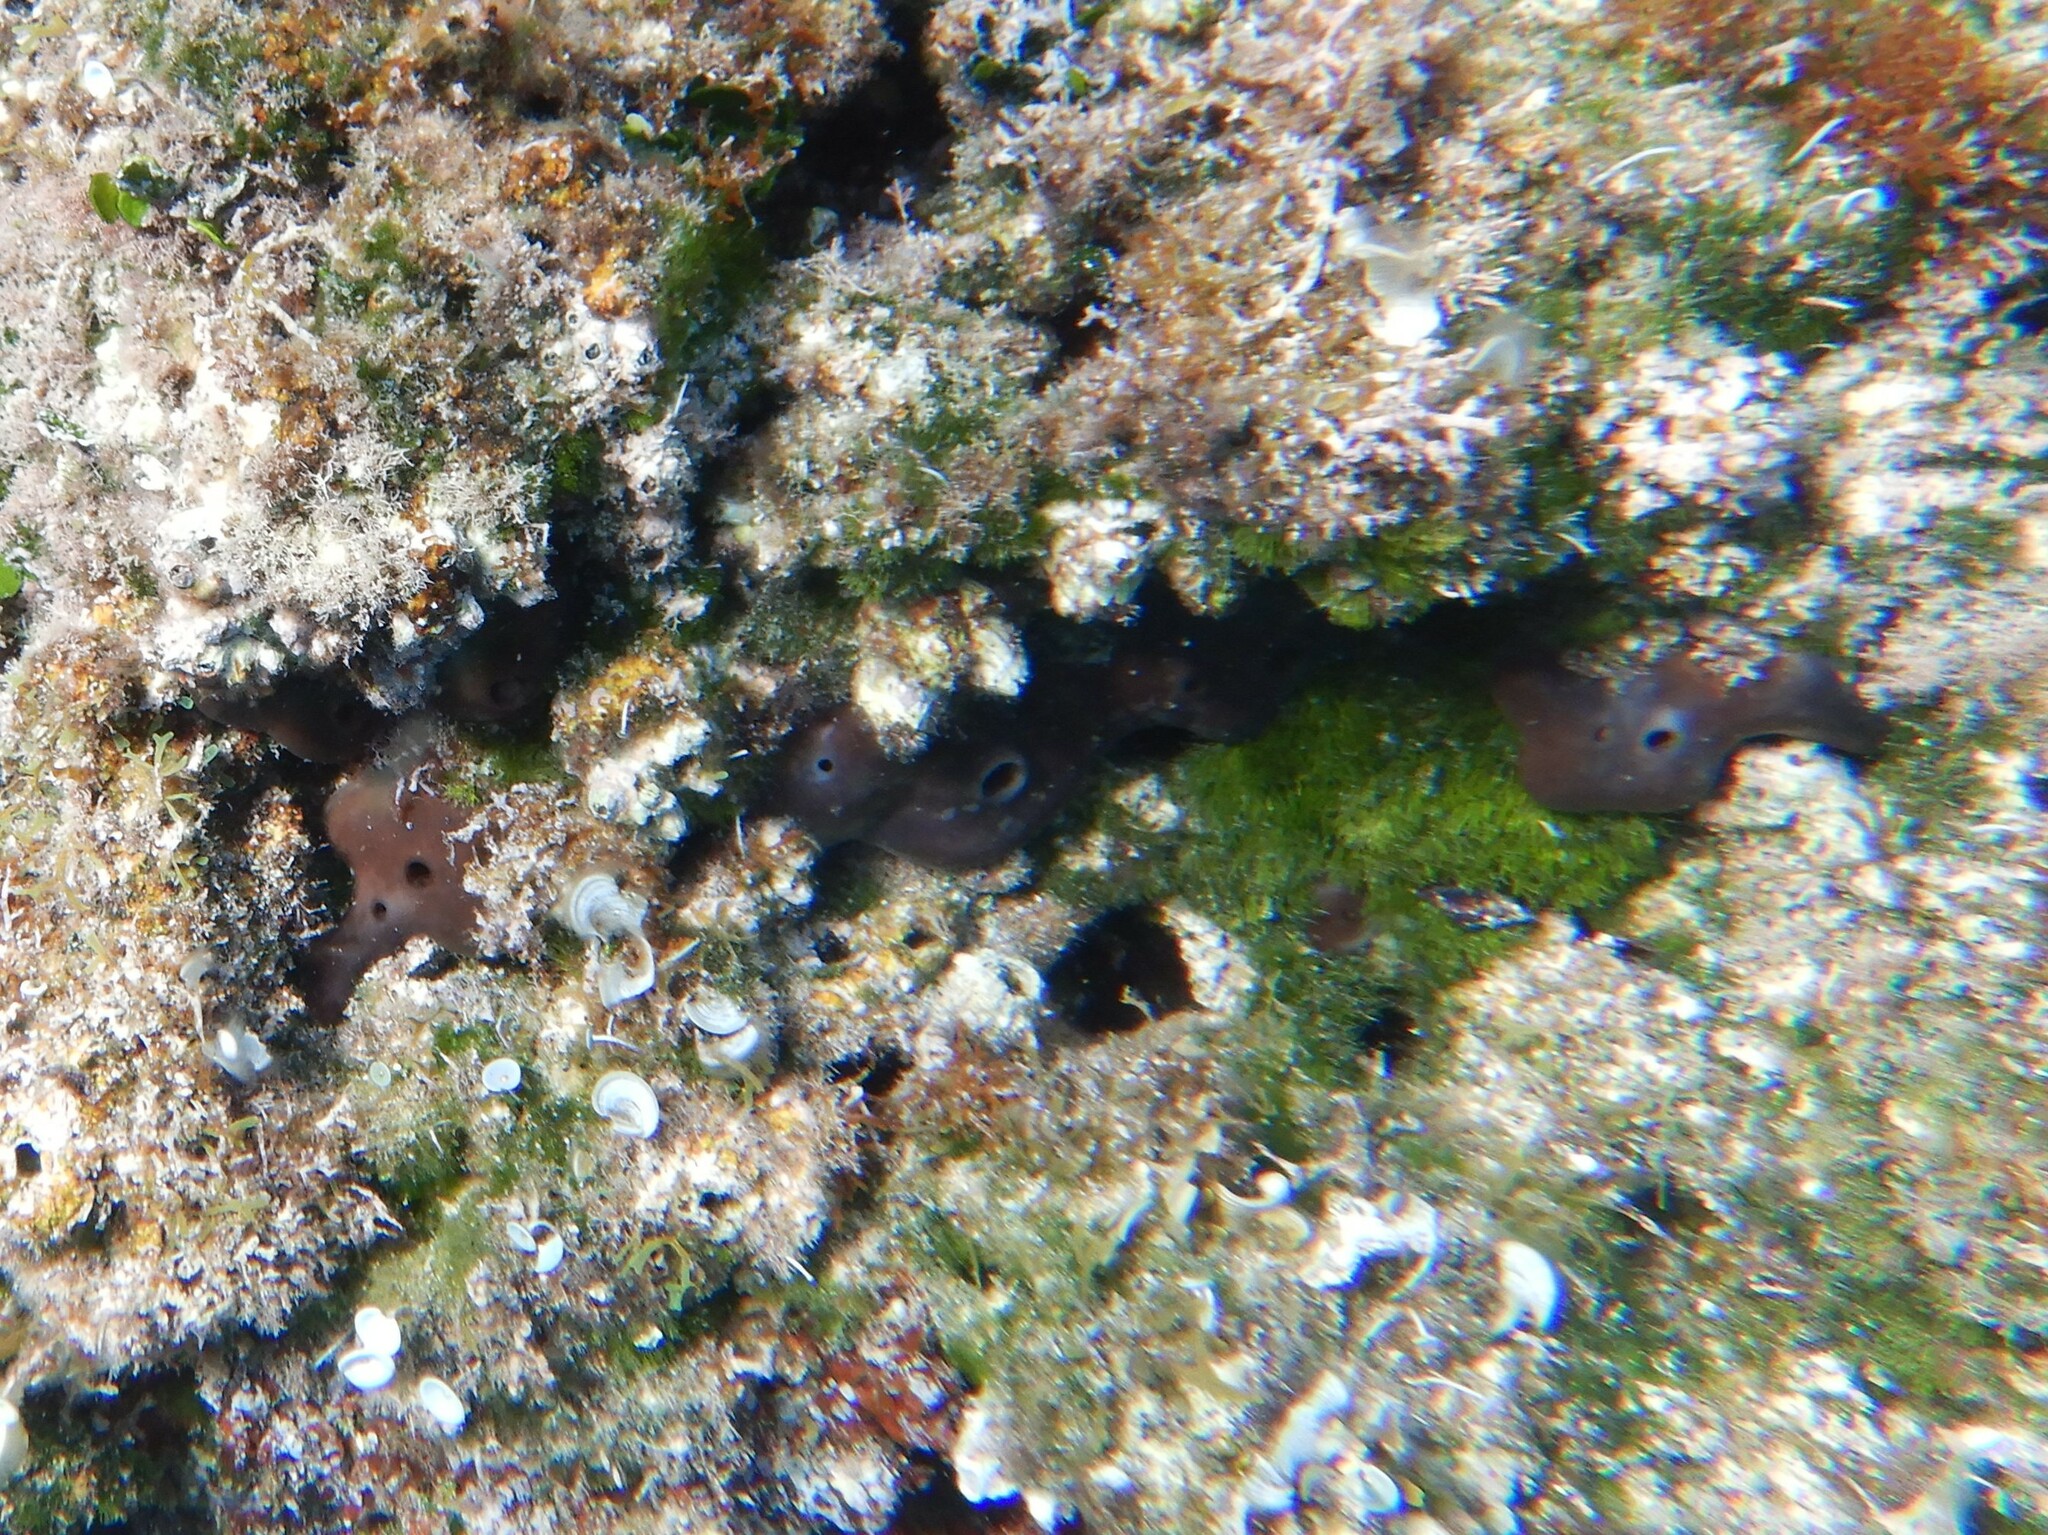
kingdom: Animalia
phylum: Porifera
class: Demospongiae
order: Chondrosiida
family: Chondrosiidae
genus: Chondrosia
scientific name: Chondrosia reniformis
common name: Chicken liver sponge
